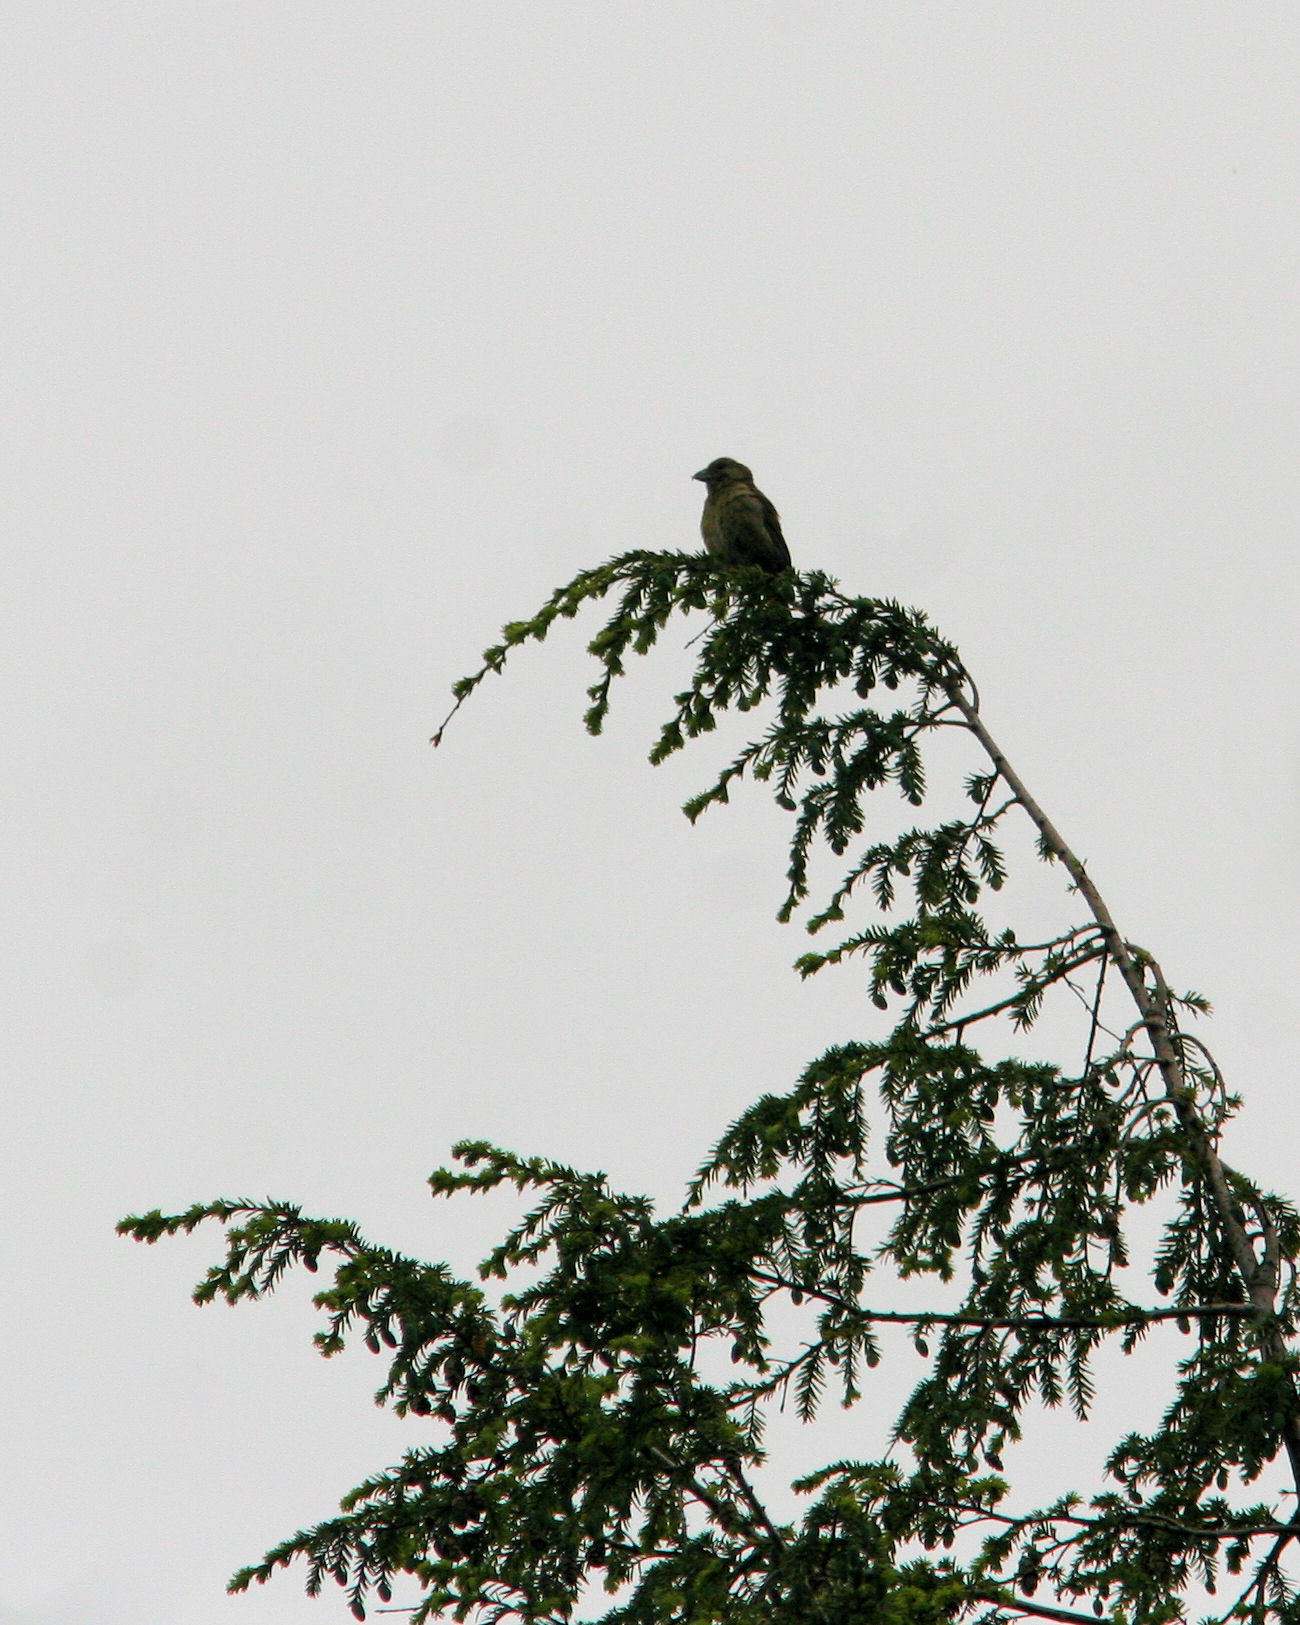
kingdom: Animalia
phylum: Chordata
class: Aves
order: Passeriformes
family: Fringillidae
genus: Loxia
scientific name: Loxia curvirostra
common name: Red crossbill
